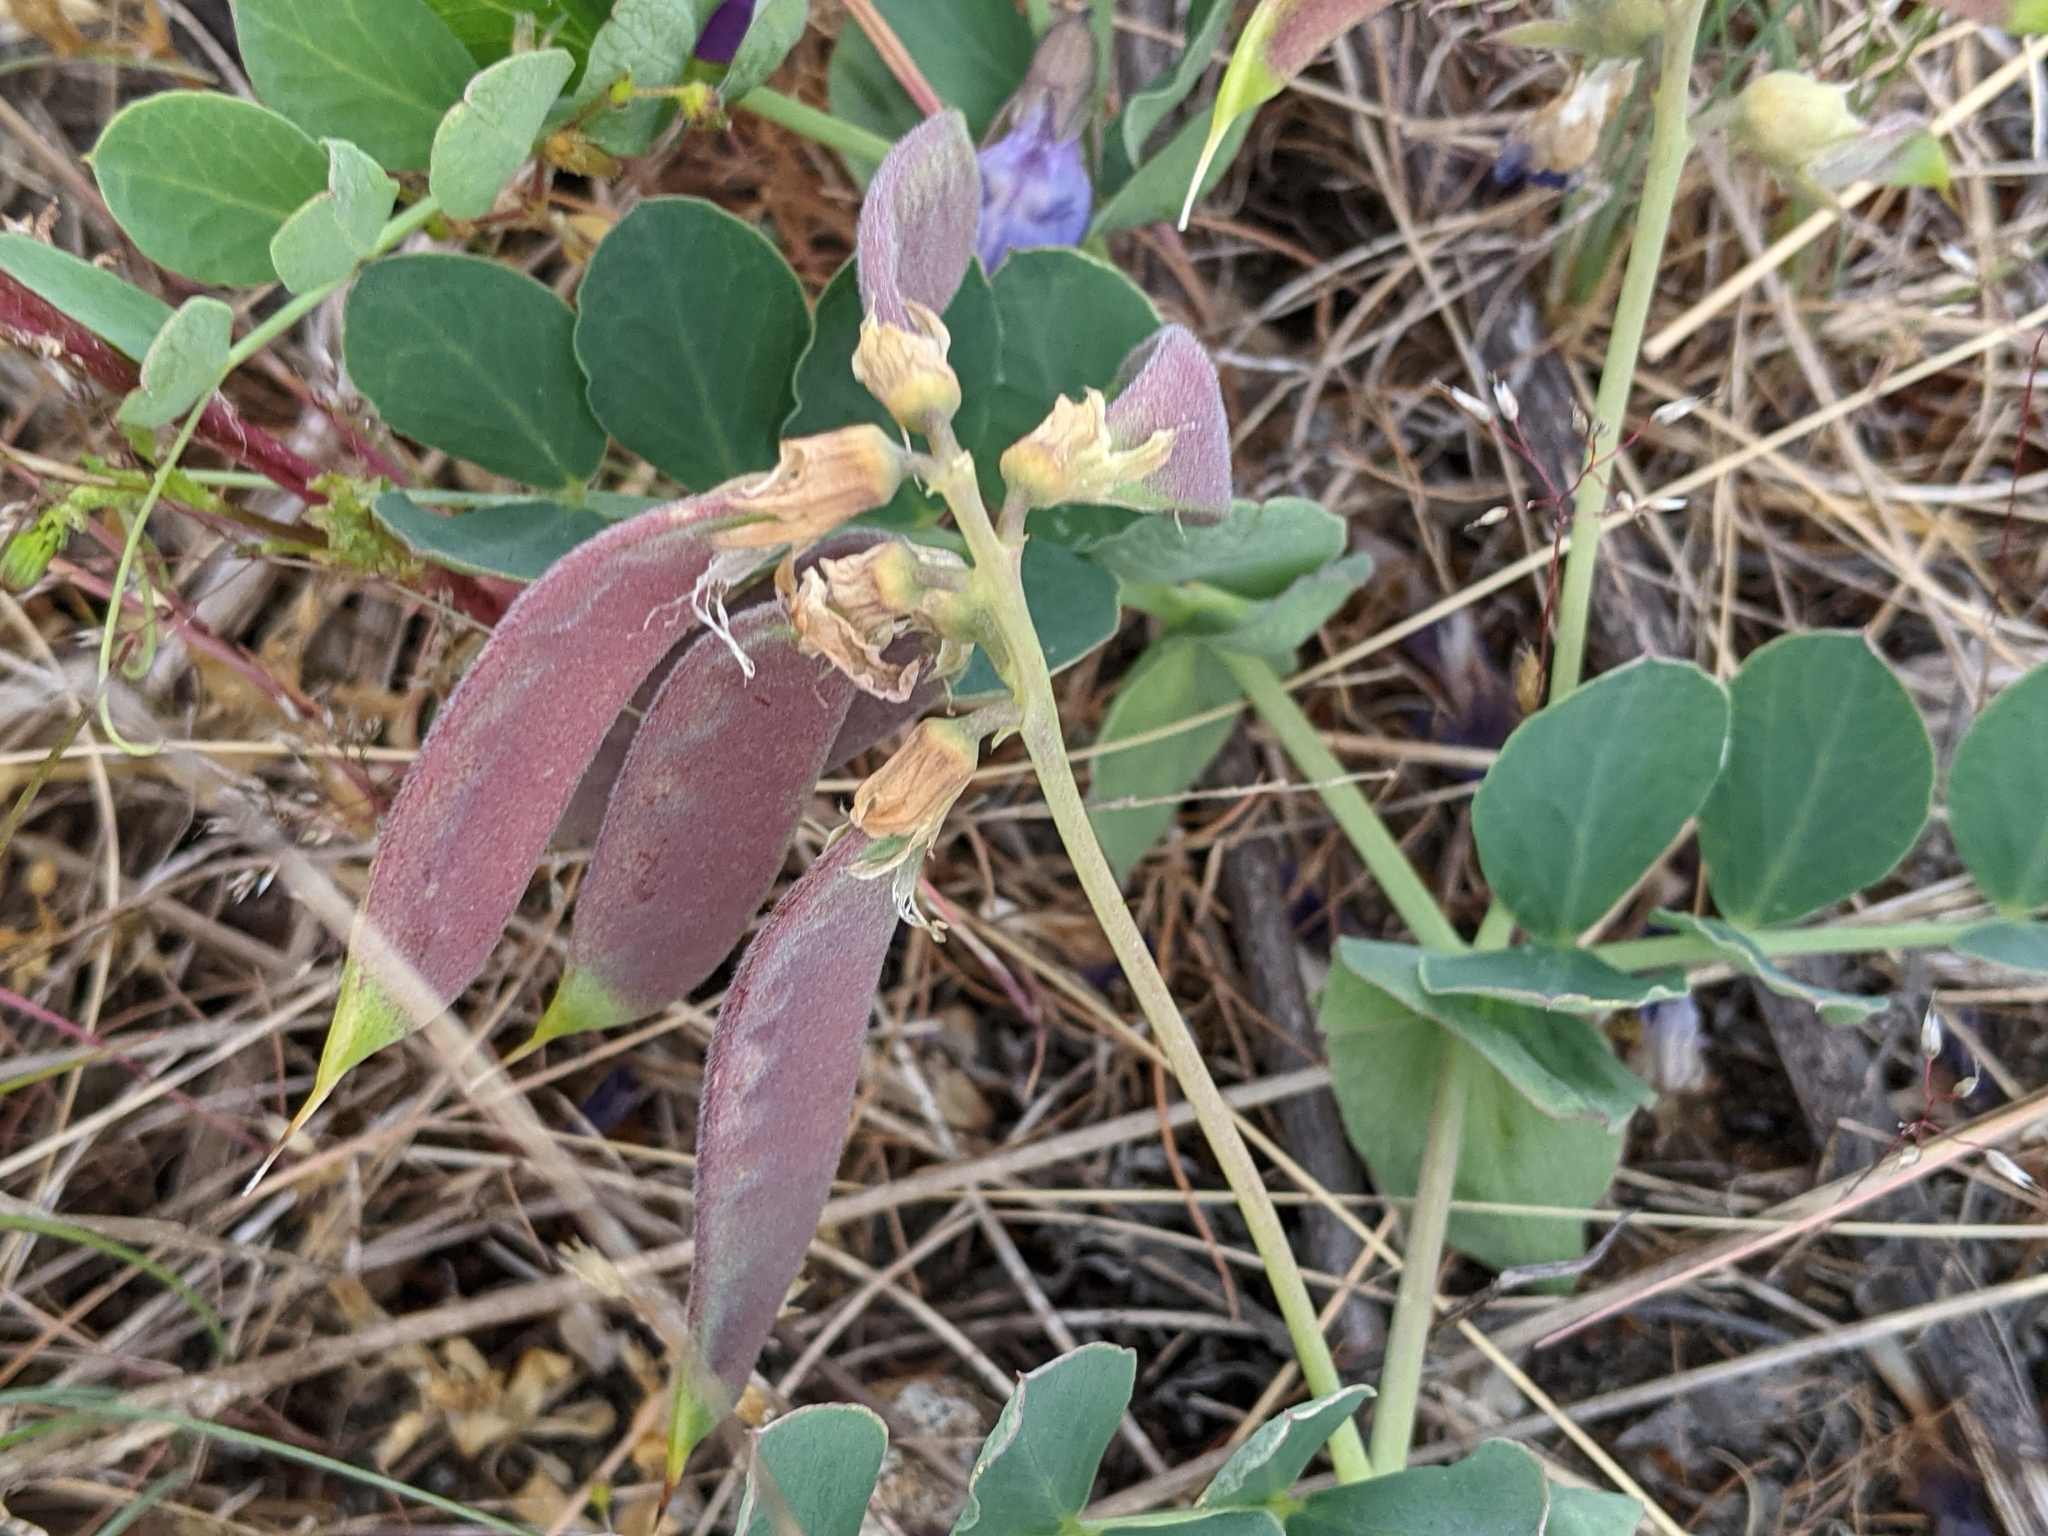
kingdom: Plantae
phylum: Tracheophyta
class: Magnoliopsida
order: Fabales
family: Fabaceae
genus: Lathyrus
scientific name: Lathyrus japonicus
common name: Sea pea
